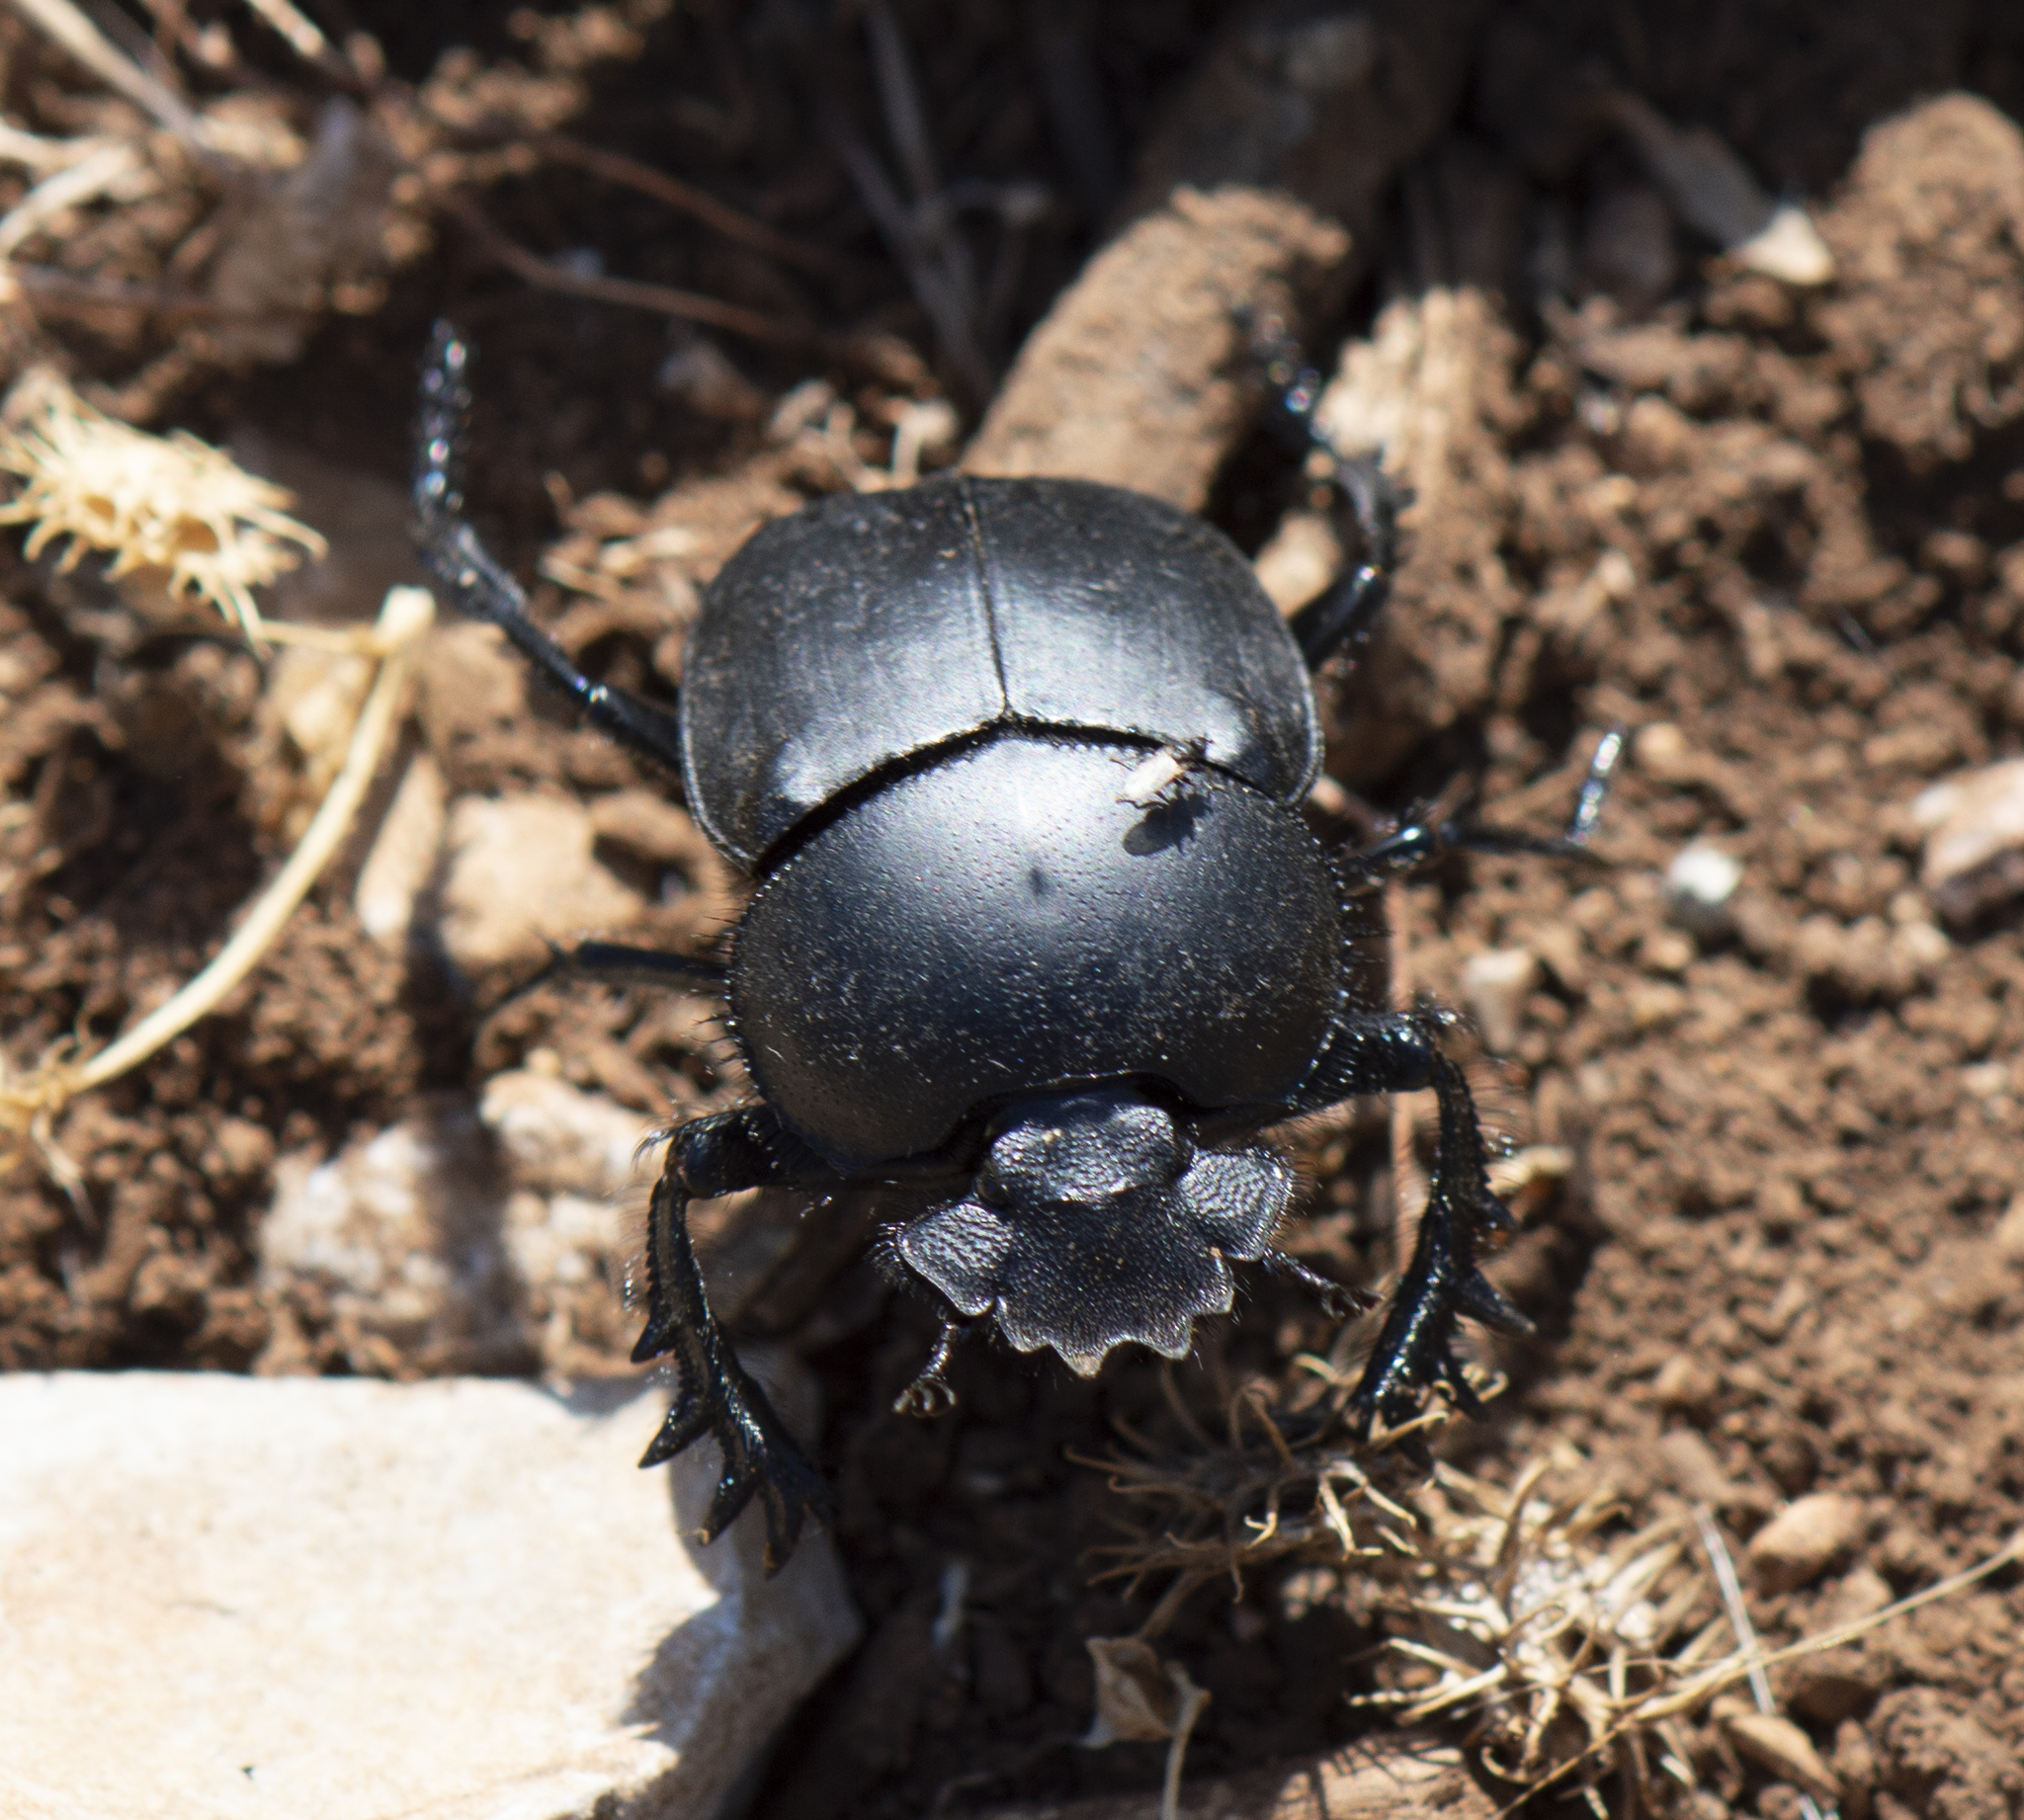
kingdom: Animalia
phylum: Arthropoda
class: Insecta
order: Coleoptera
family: Scarabaeidae
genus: Scarabaeus
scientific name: Scarabaeus pius
